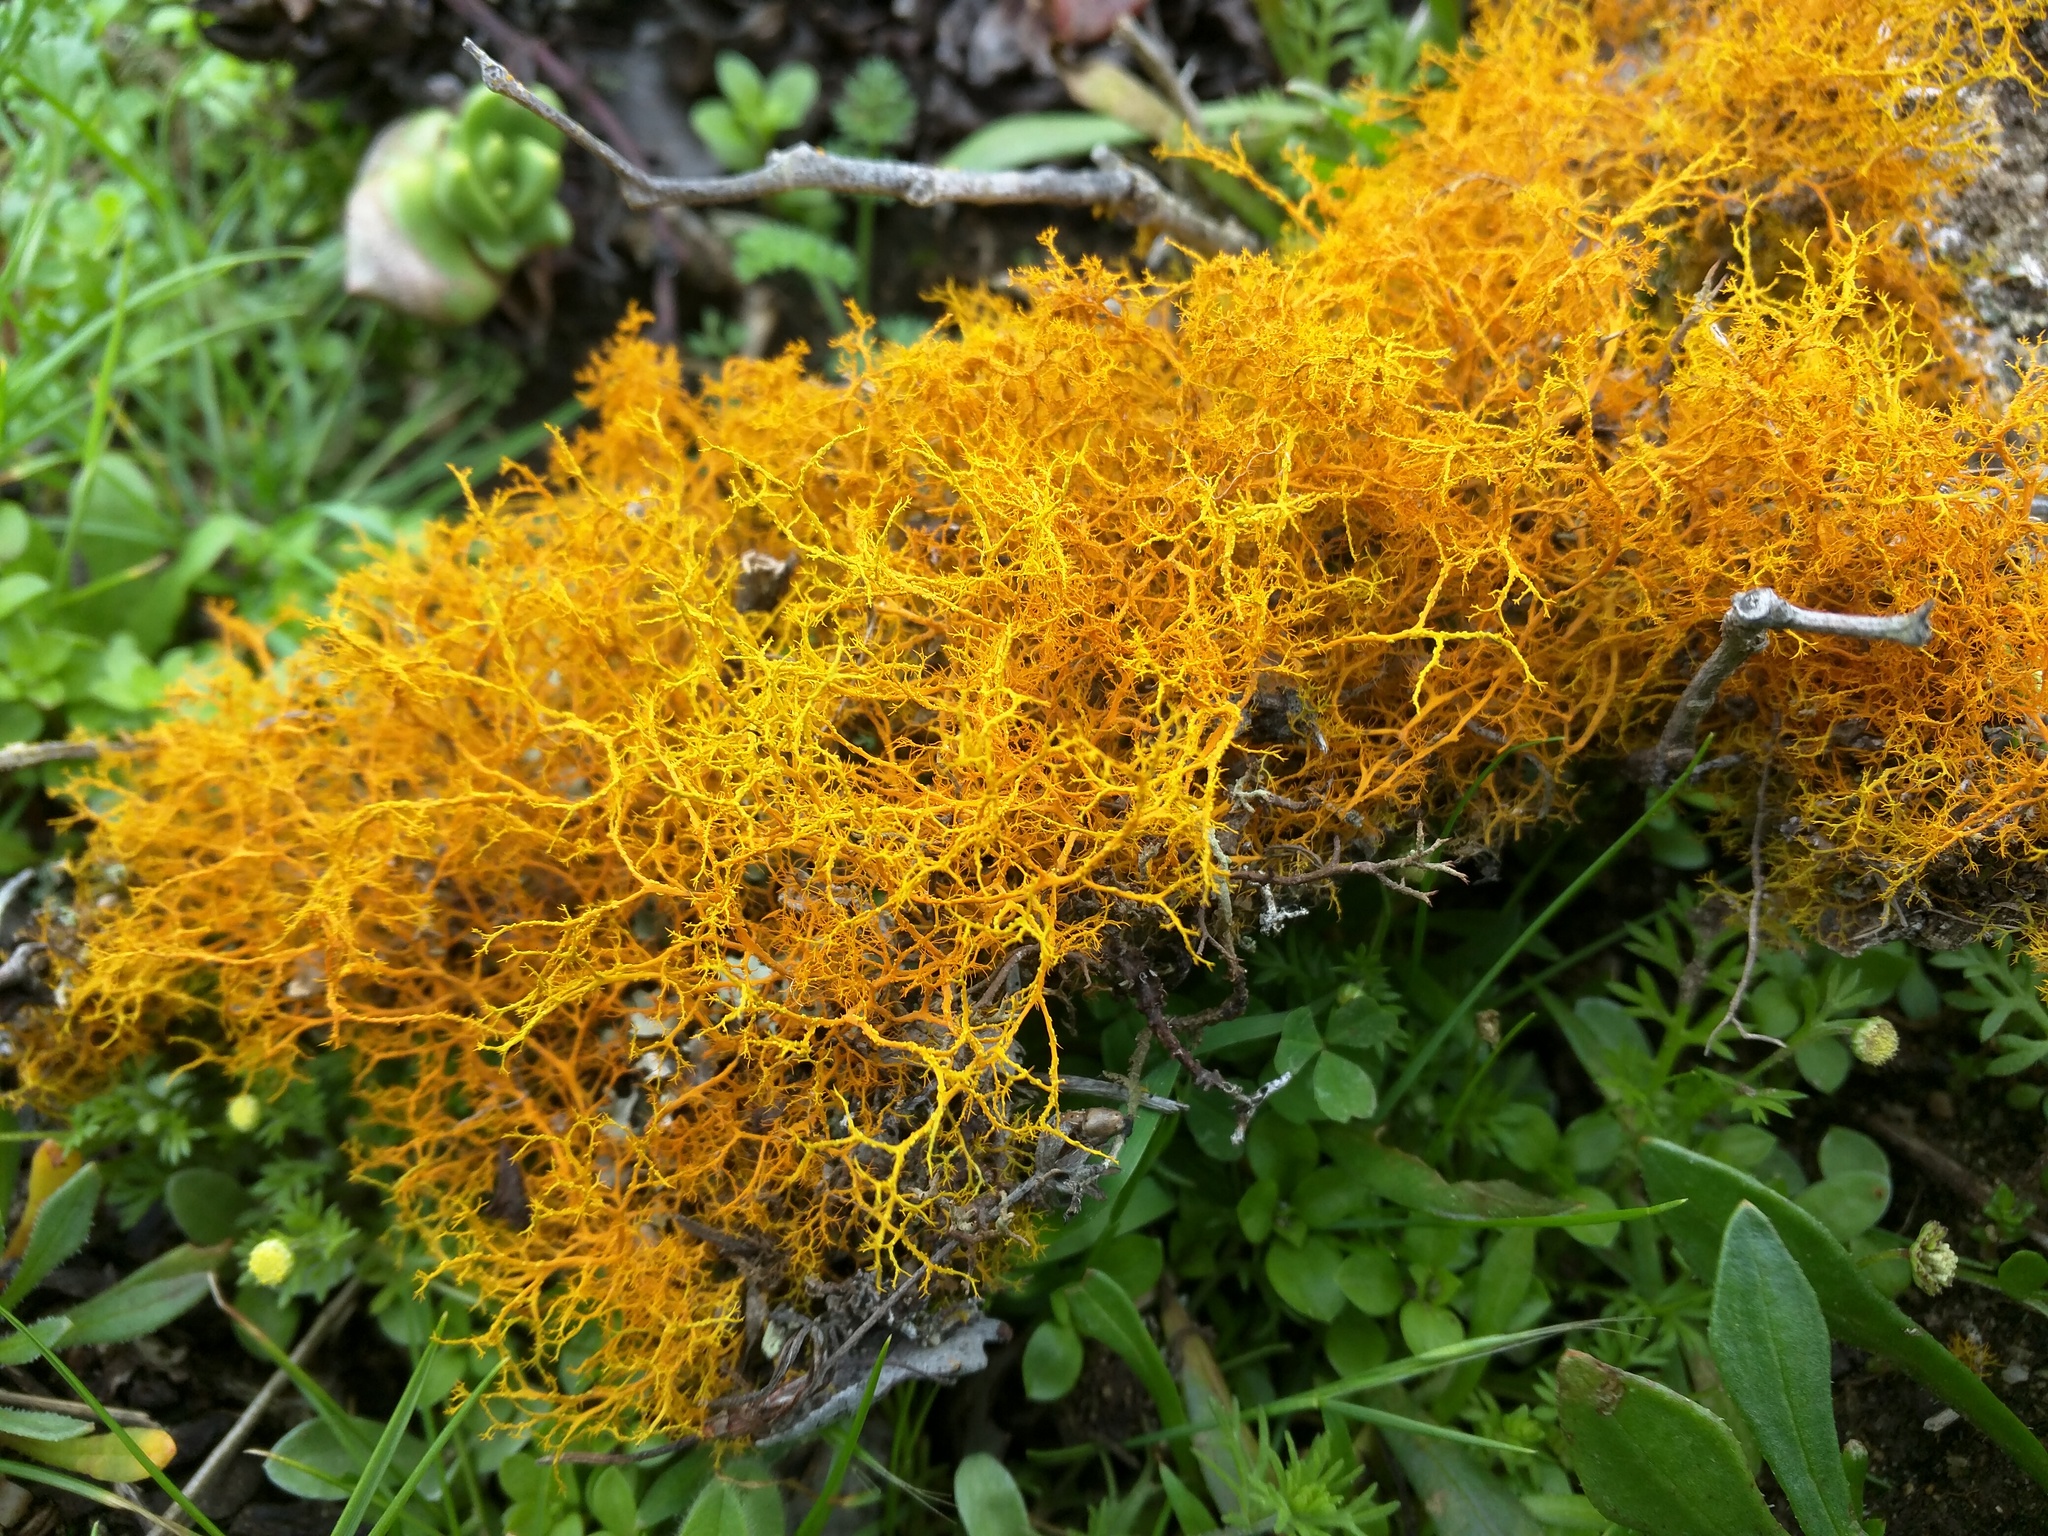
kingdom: Fungi
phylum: Ascomycota
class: Lecanoromycetes
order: Teloschistales
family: Teloschistaceae
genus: Teloschistes
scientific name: Teloschistes flavicans
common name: Golden hair-lichen
